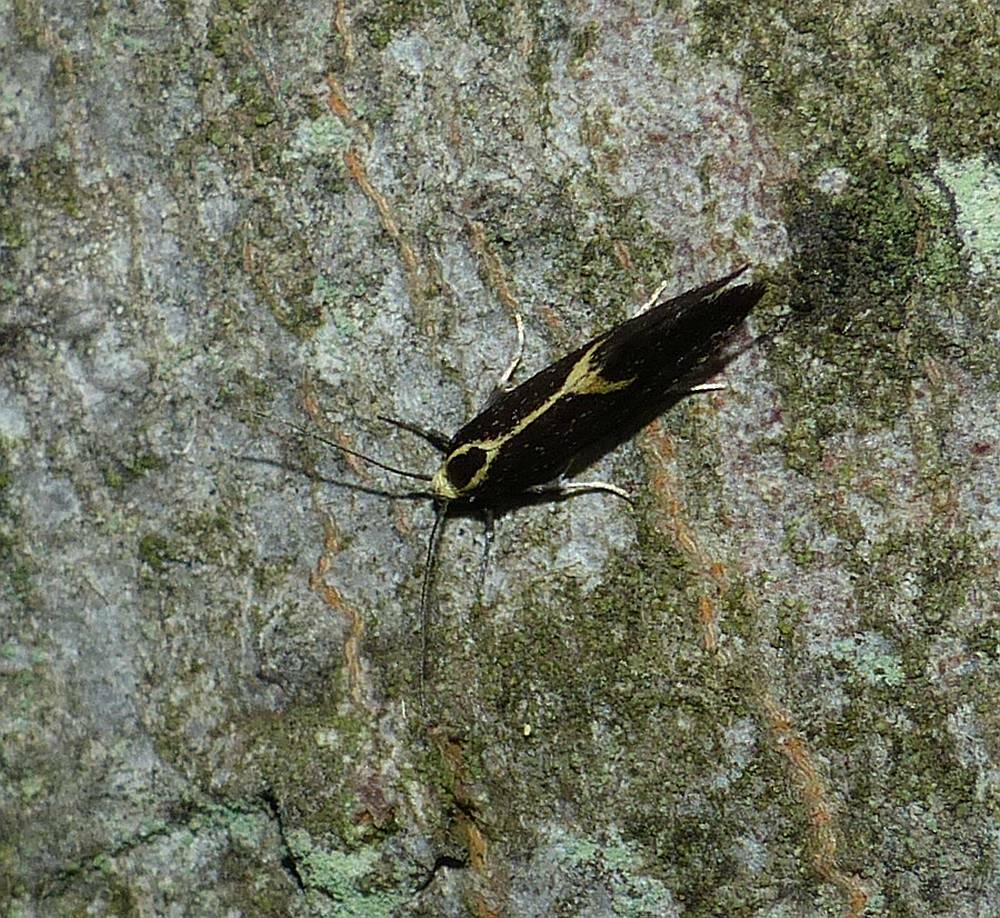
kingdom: Animalia
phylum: Arthropoda
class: Insecta
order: Lepidoptera
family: Oecophoridae
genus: Polix
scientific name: Polix coloradella
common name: Skunk moth
